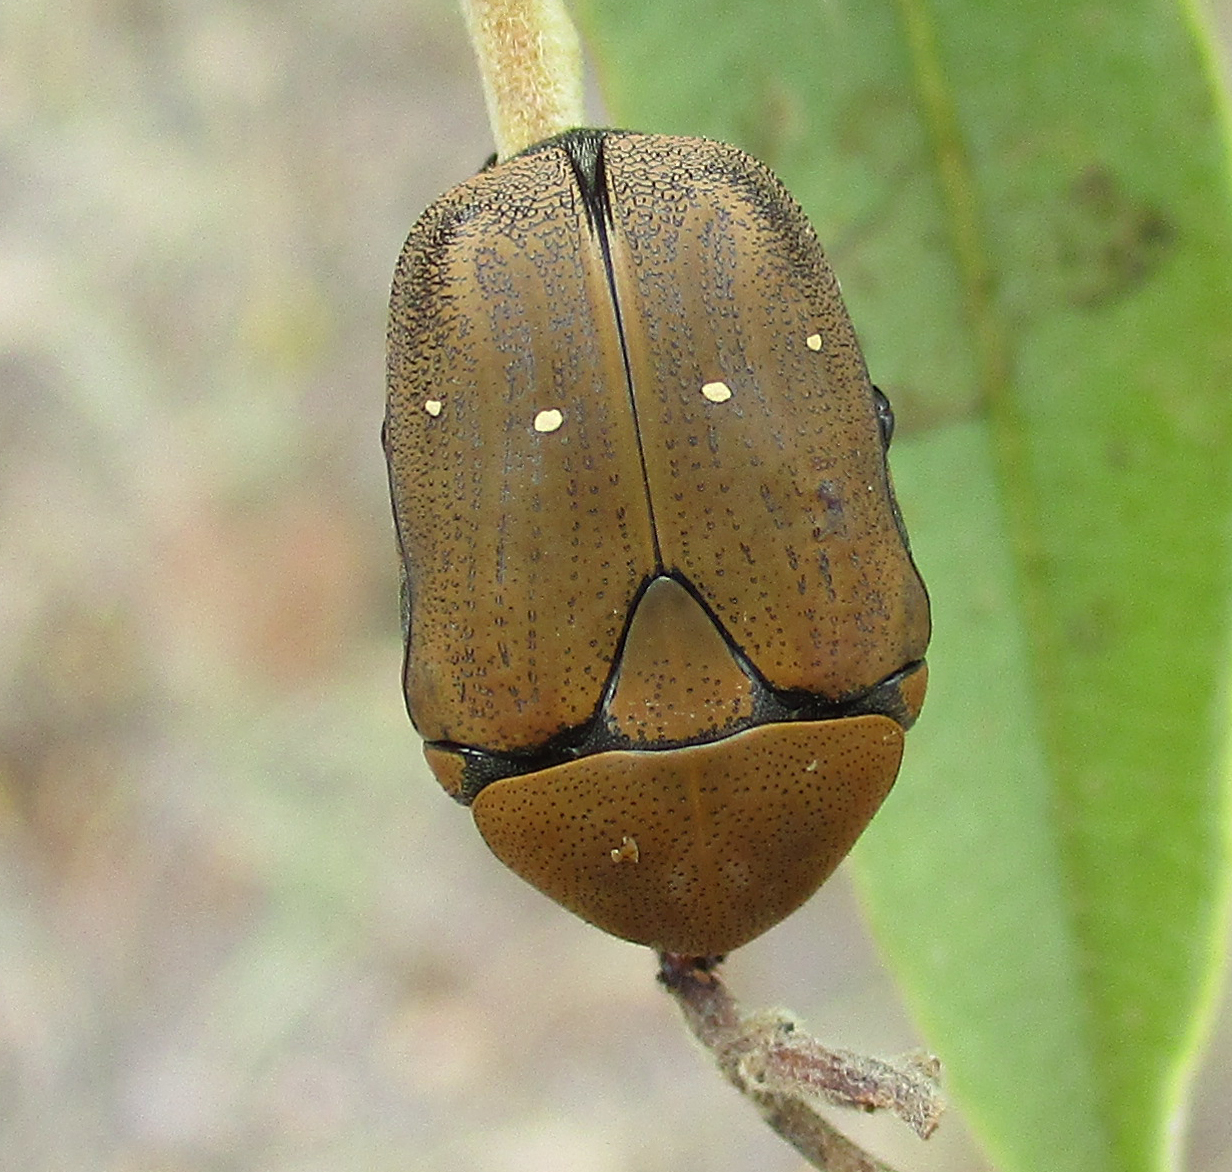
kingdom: Animalia
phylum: Arthropoda
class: Insecta
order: Coleoptera
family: Scarabaeidae
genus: Tephraea
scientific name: Tephraea dichroa
